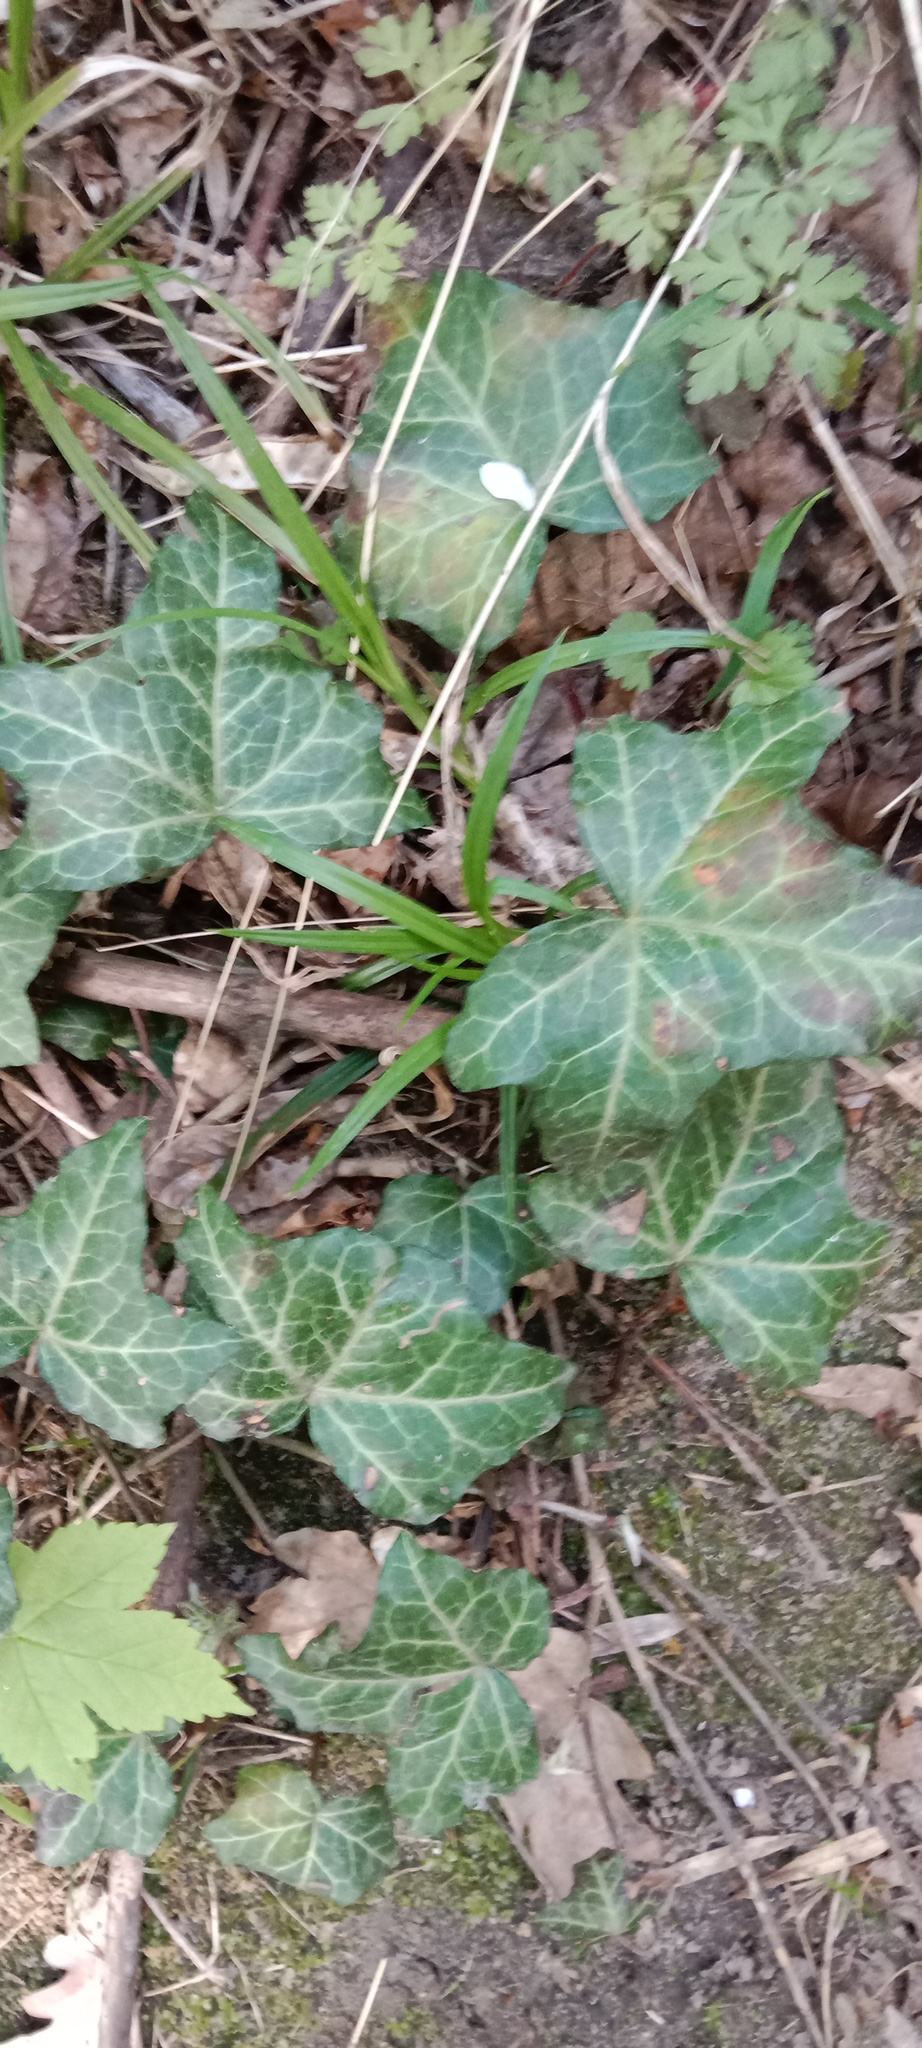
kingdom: Plantae
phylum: Tracheophyta
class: Magnoliopsida
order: Apiales
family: Araliaceae
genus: Hedera
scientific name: Hedera helix
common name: Ivy
